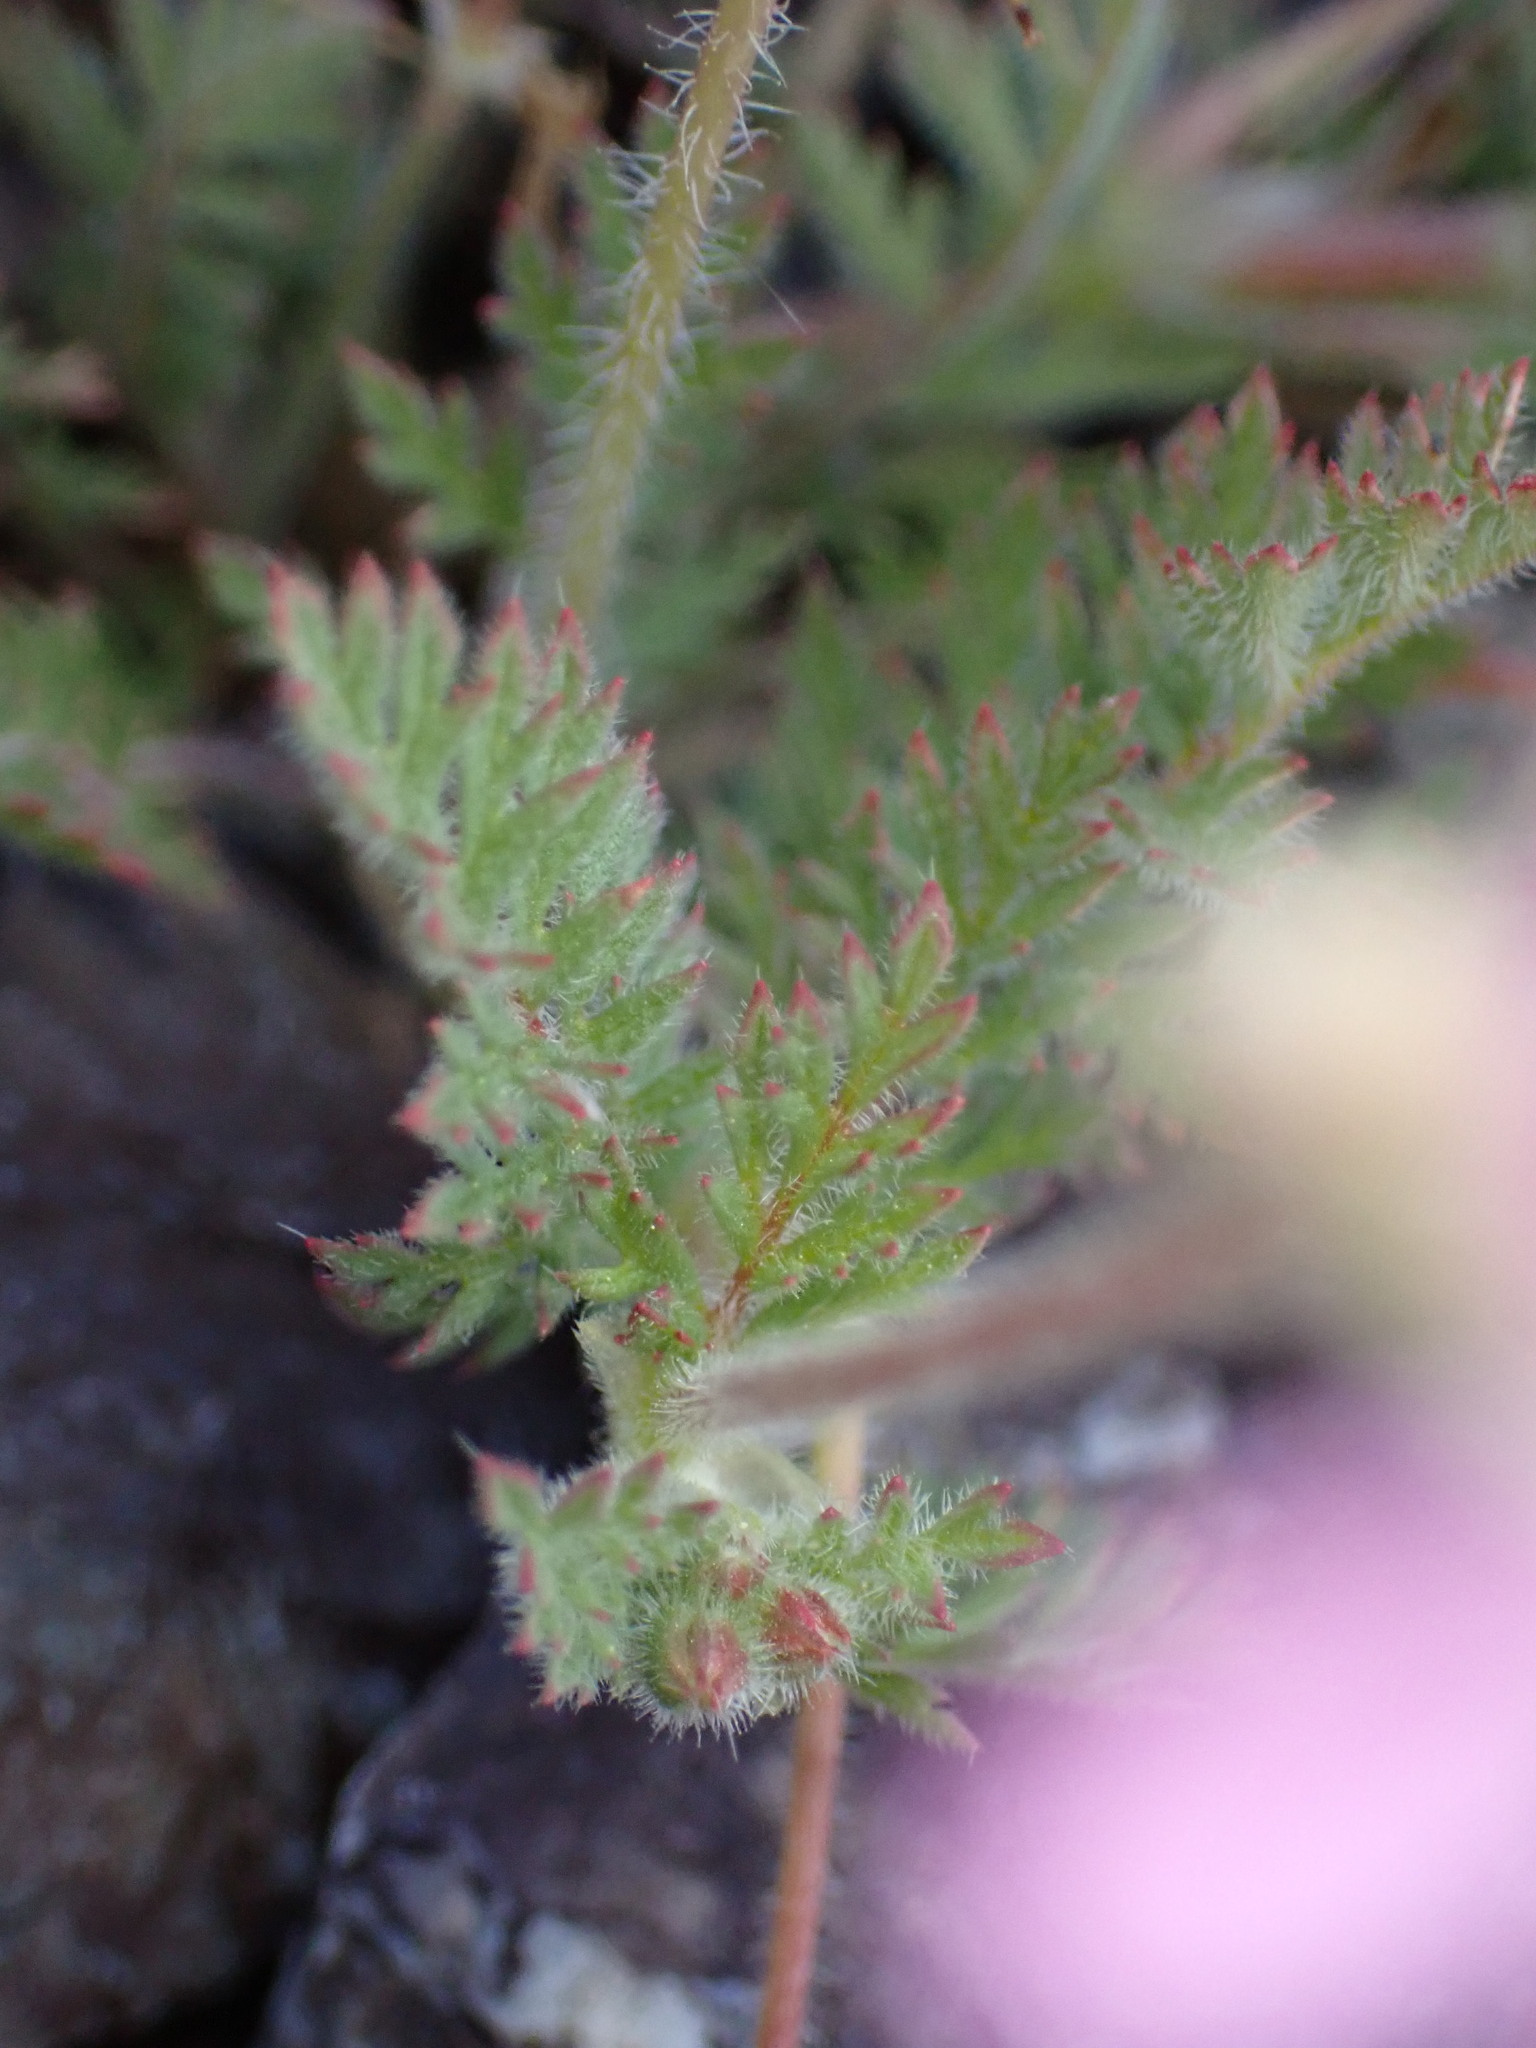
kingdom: Plantae
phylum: Tracheophyta
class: Magnoliopsida
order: Geraniales
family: Geraniaceae
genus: Erodium
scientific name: Erodium cicutarium
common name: Common stork's-bill
